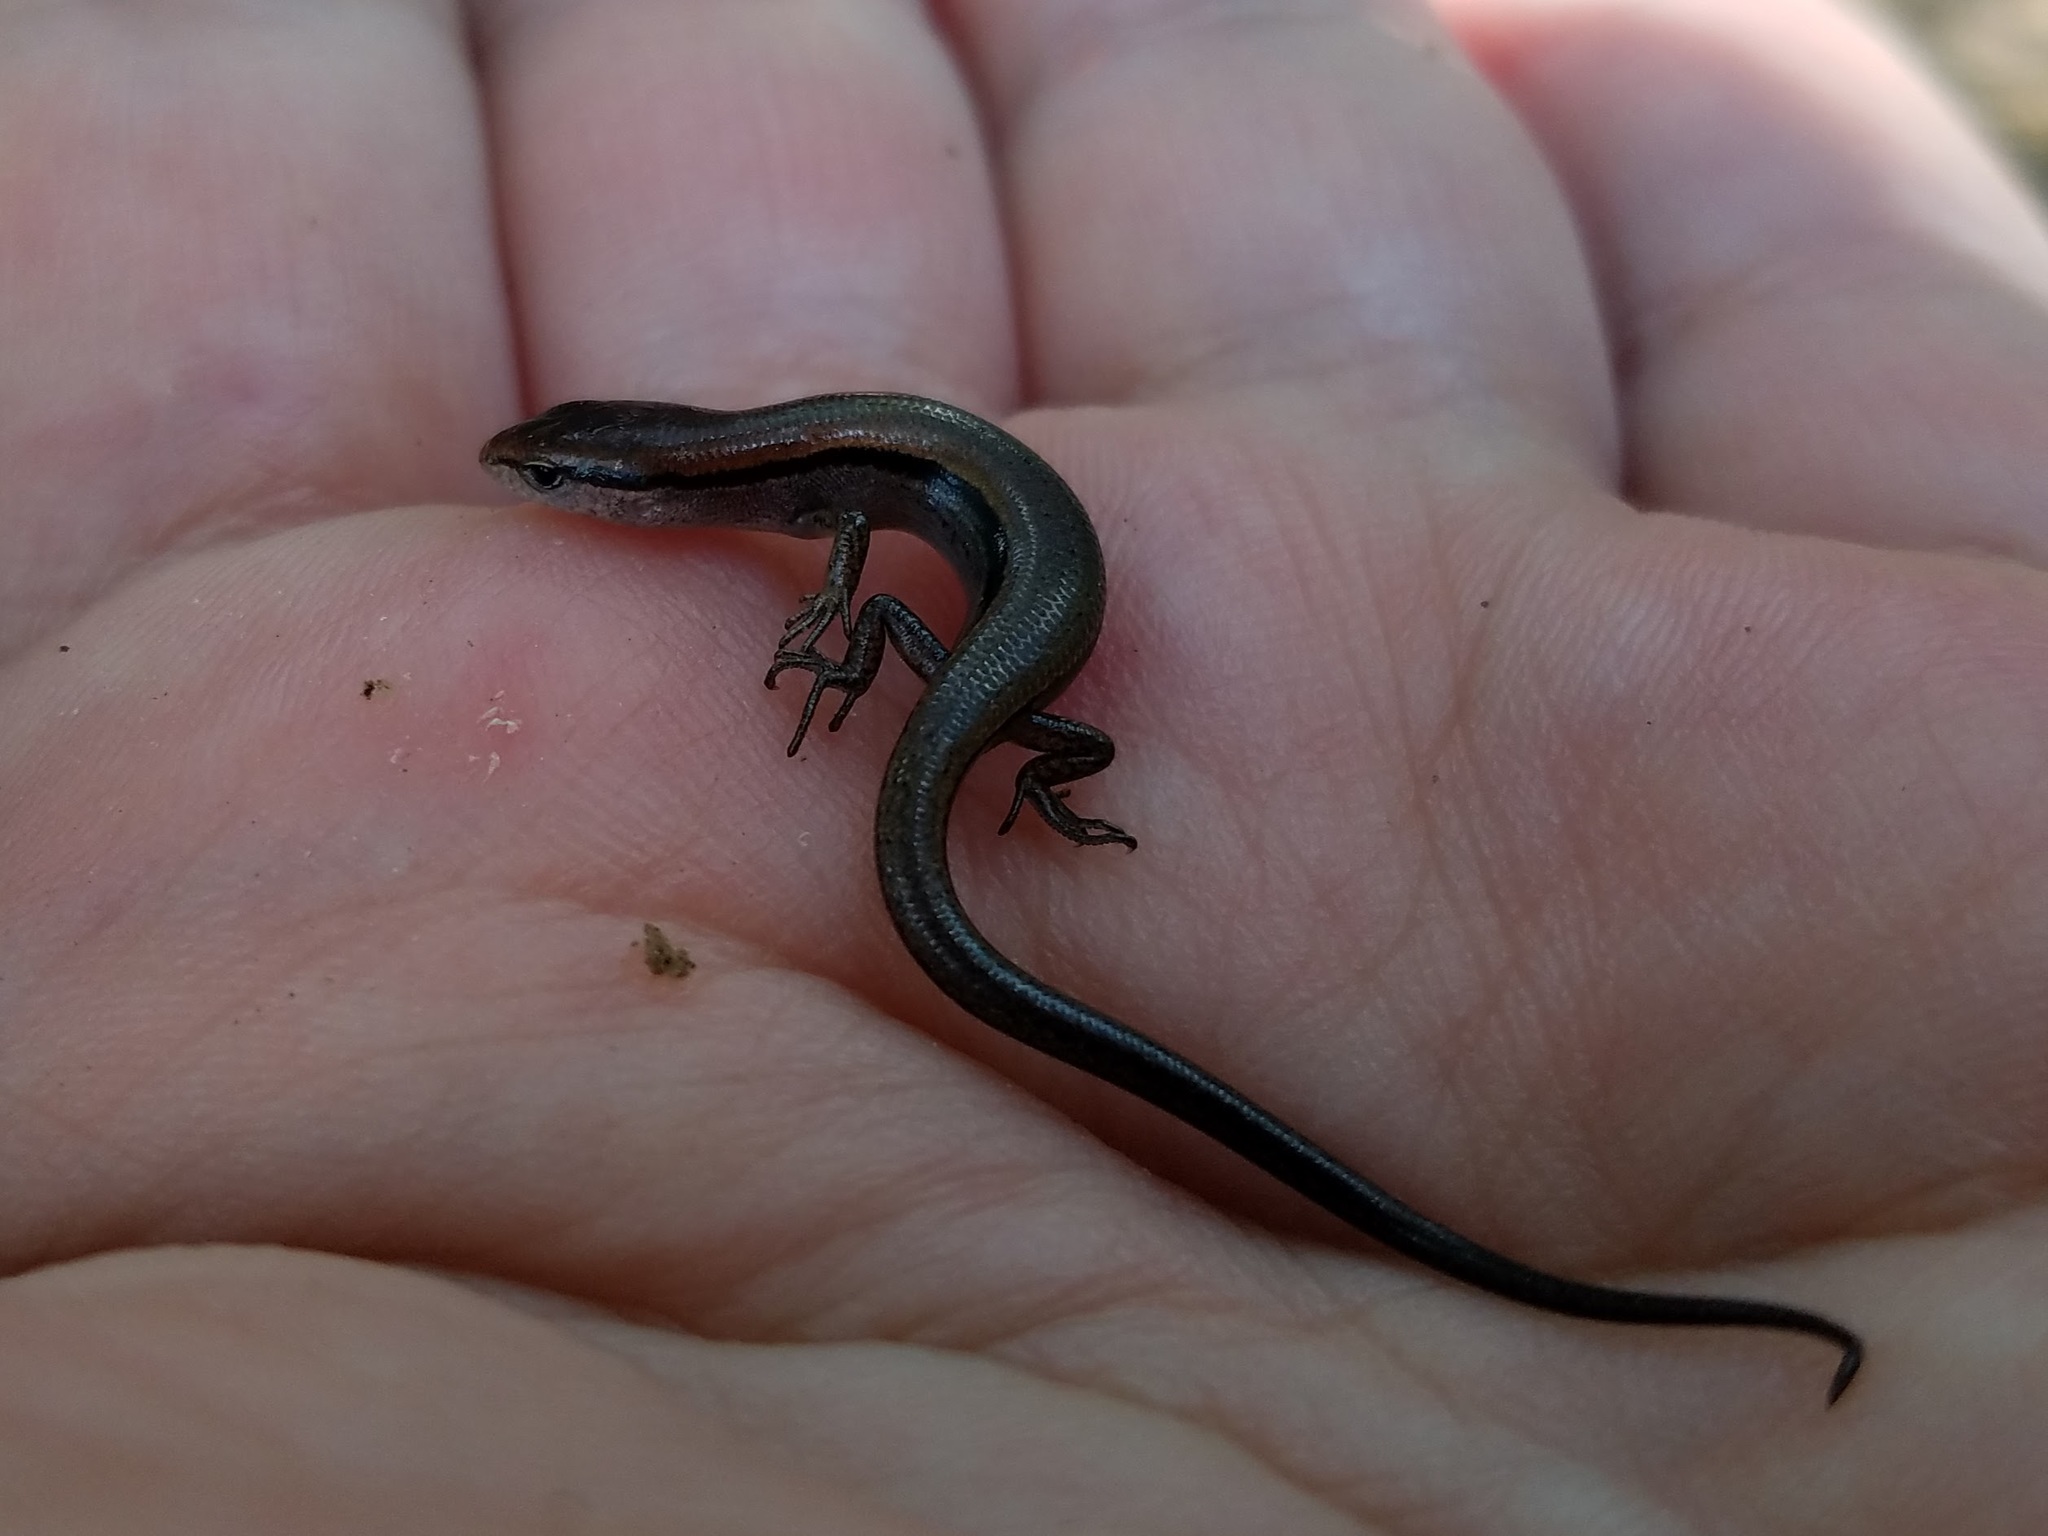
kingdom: Animalia
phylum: Chordata
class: Squamata
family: Scincidae
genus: Scincella
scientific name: Scincella lateralis
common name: Ground skink
